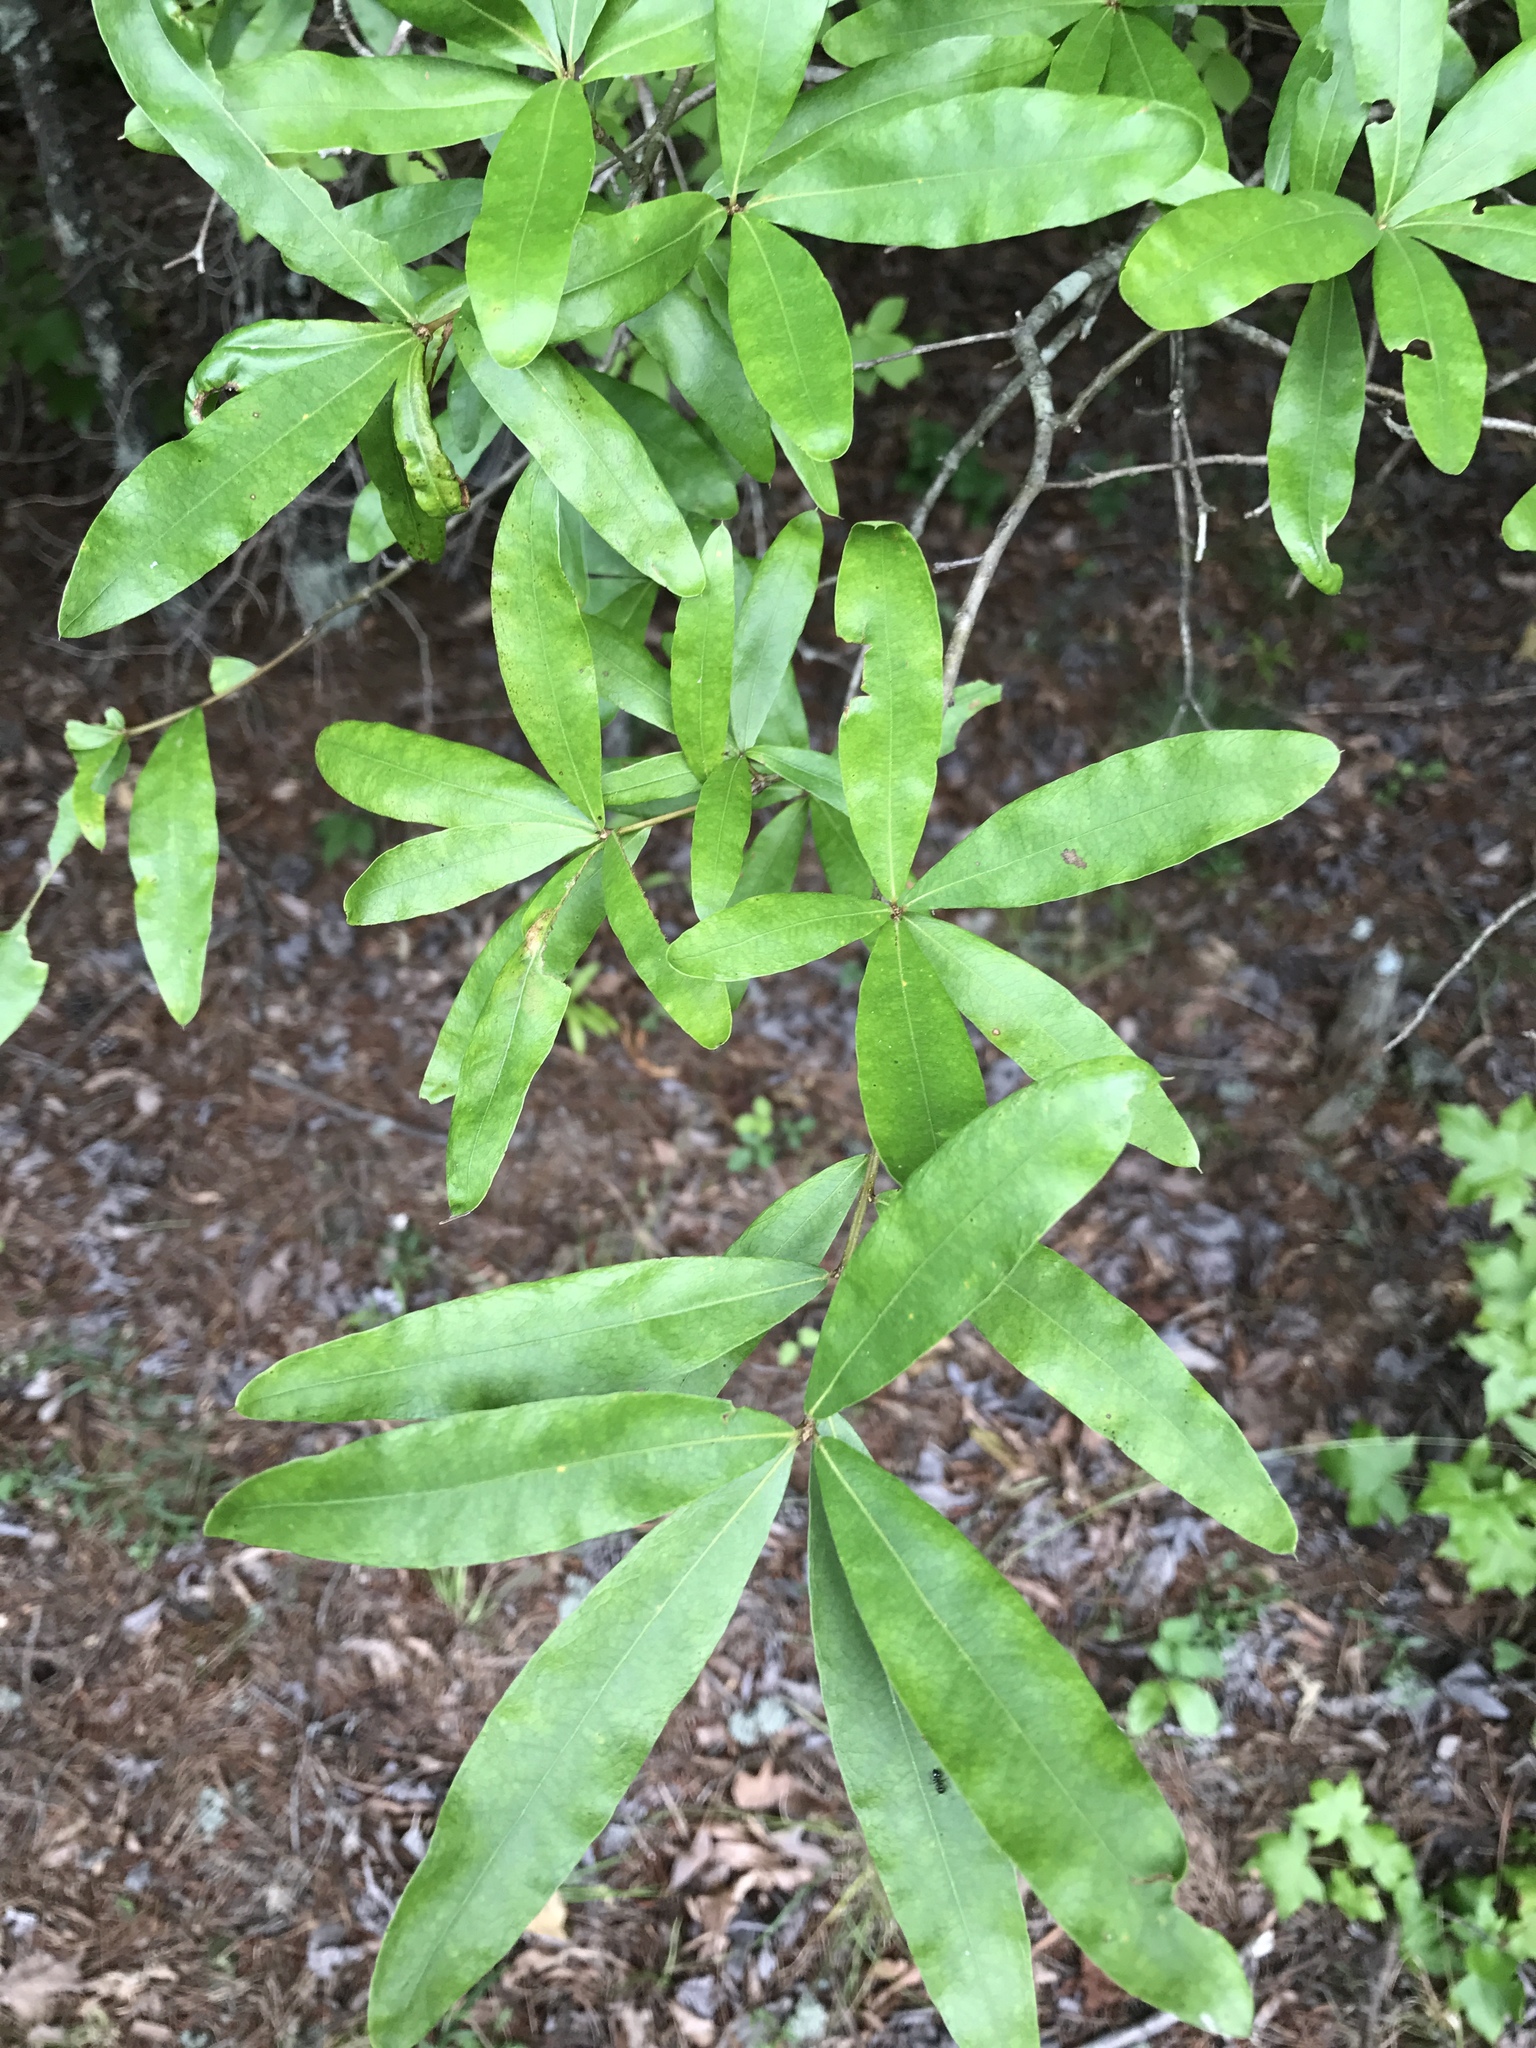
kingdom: Plantae
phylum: Tracheophyta
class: Magnoliopsida
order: Fagales
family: Fagaceae
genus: Quercus
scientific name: Quercus phellos
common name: Willow oak
